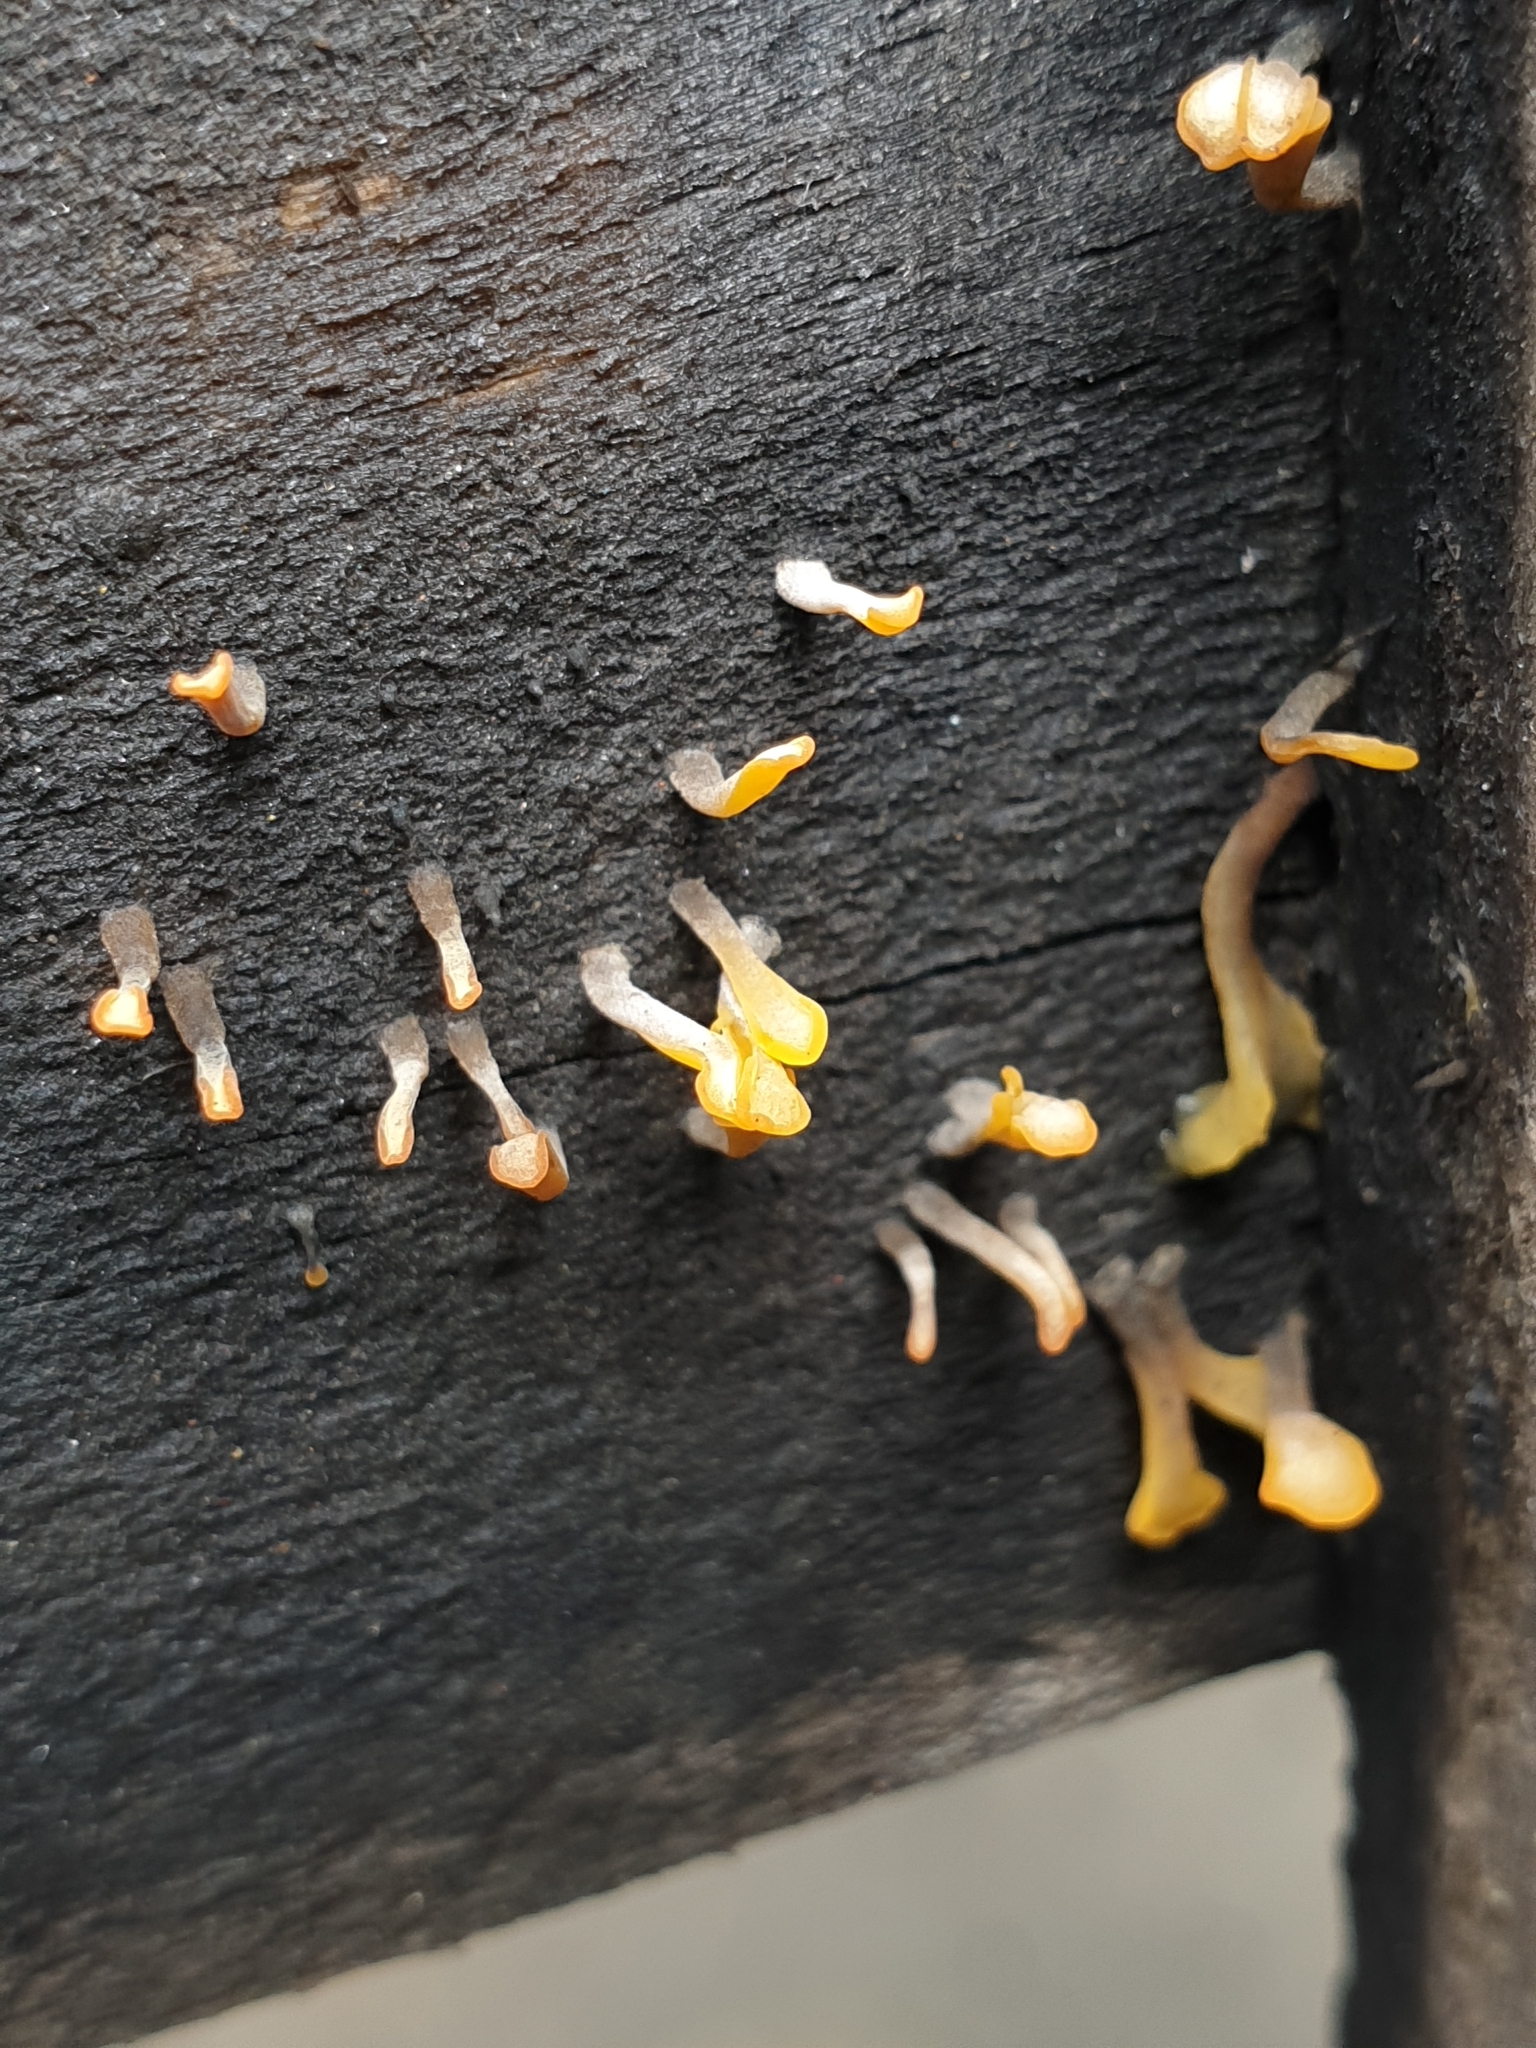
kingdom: Fungi
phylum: Basidiomycota
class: Dacrymycetes
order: Dacrymycetales
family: Dacrymycetaceae
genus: Dacrymyces
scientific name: Dacrymyces spathularius
